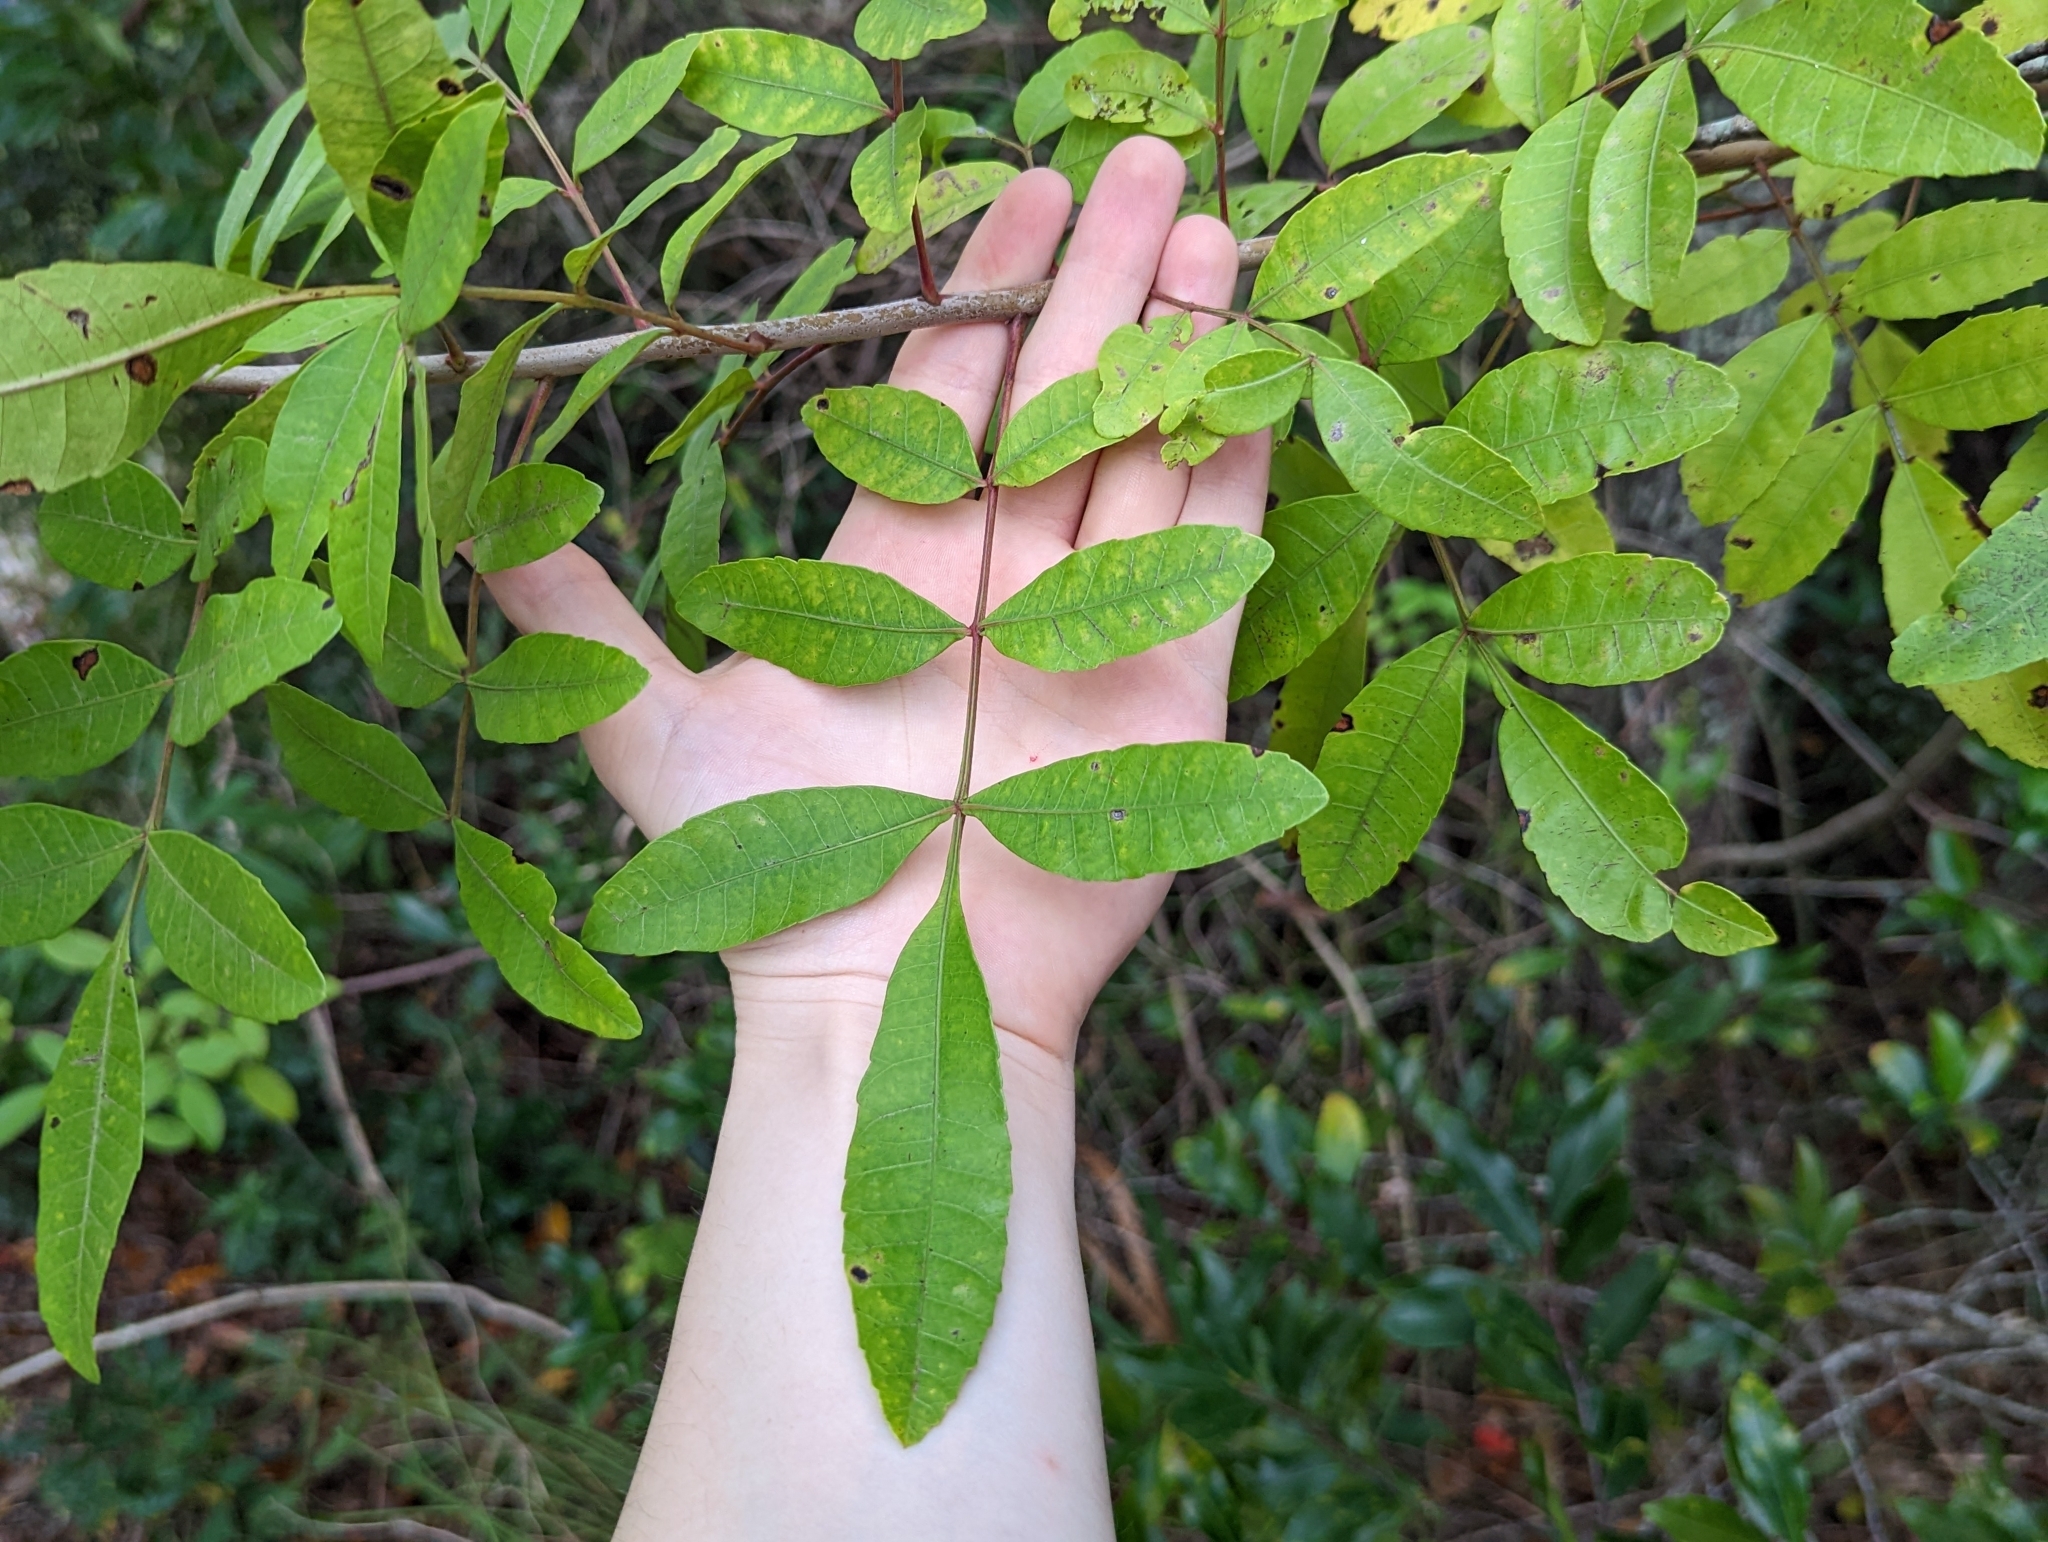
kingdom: Plantae
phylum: Tracheophyta
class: Magnoliopsida
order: Sapindales
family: Anacardiaceae
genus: Schinus
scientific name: Schinus terebinthifolia
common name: Brazilian peppertree
